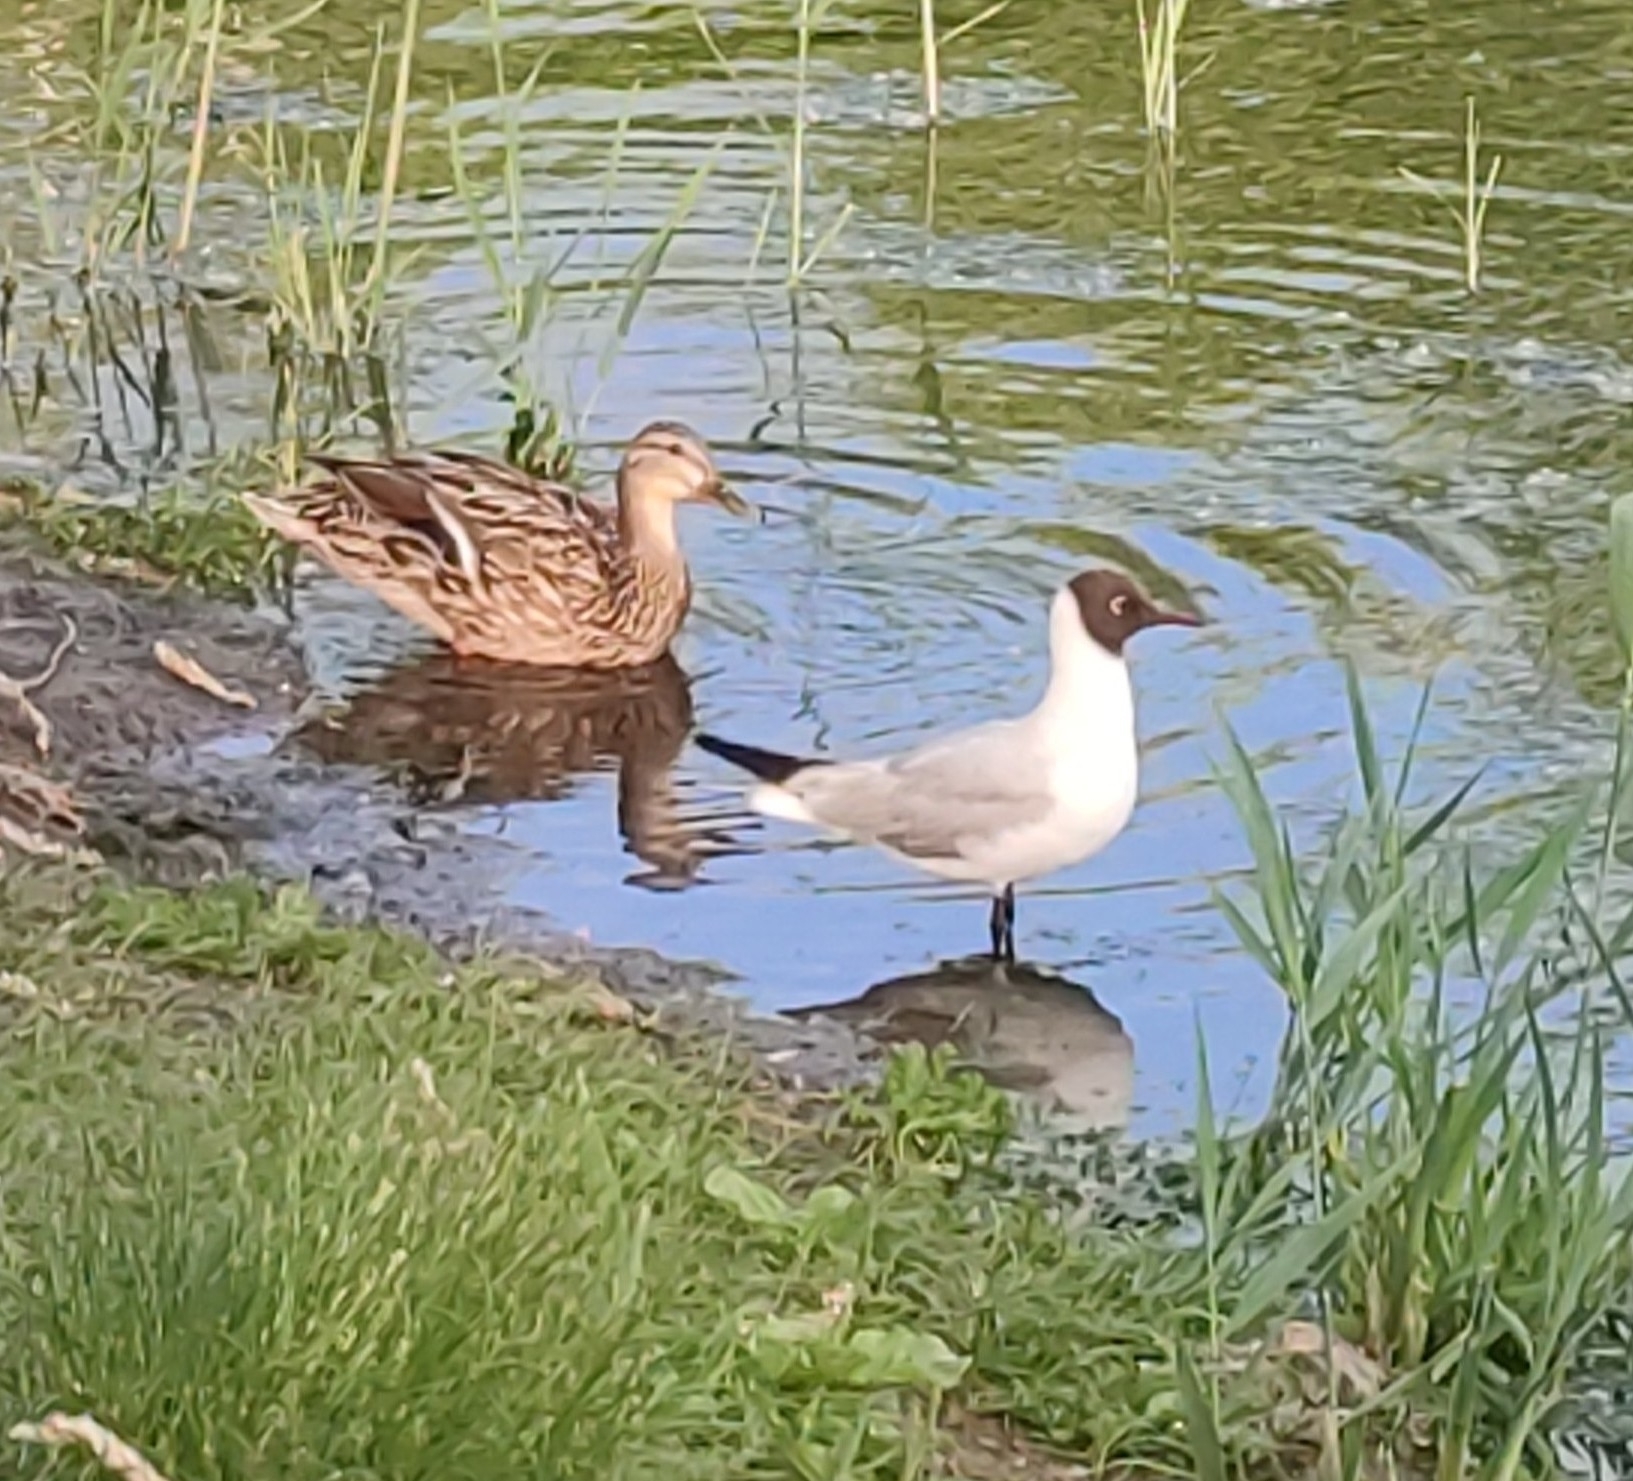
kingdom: Animalia
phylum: Chordata
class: Aves
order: Charadriiformes
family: Laridae
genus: Chroicocephalus
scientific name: Chroicocephalus ridibundus
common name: Black-headed gull
